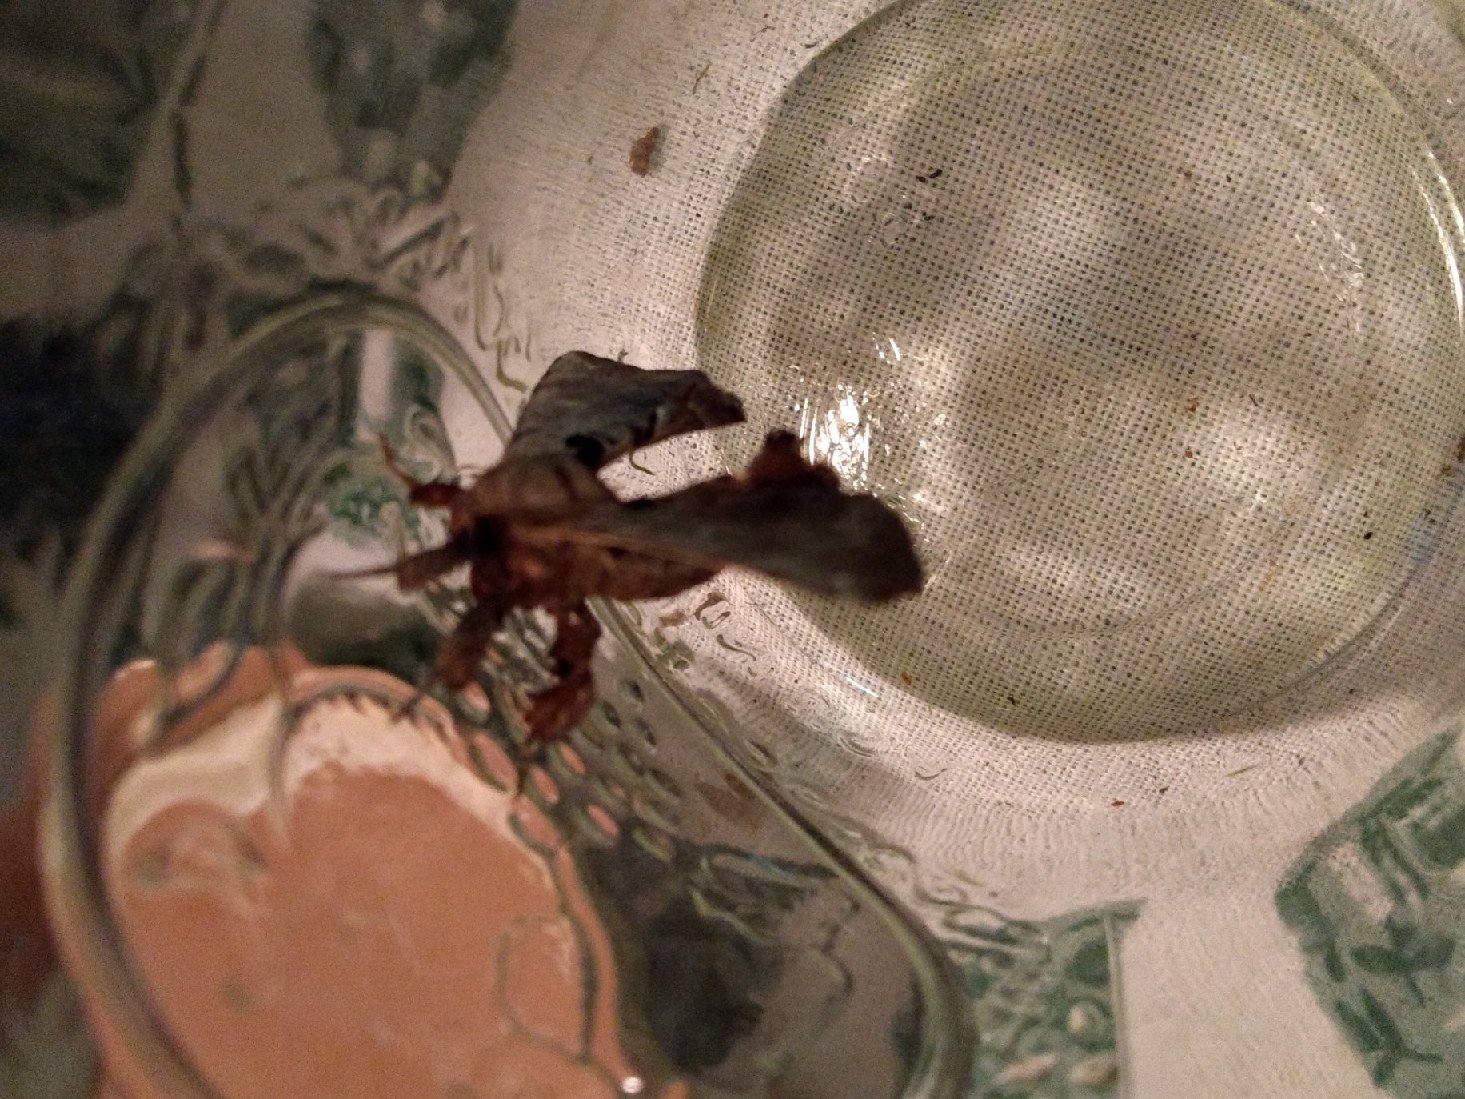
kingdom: Animalia
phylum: Arthropoda
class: Insecta
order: Lepidoptera
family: Apatelodidae
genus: Hygrochroa
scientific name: Hygrochroa Apatelodes torrefacta
